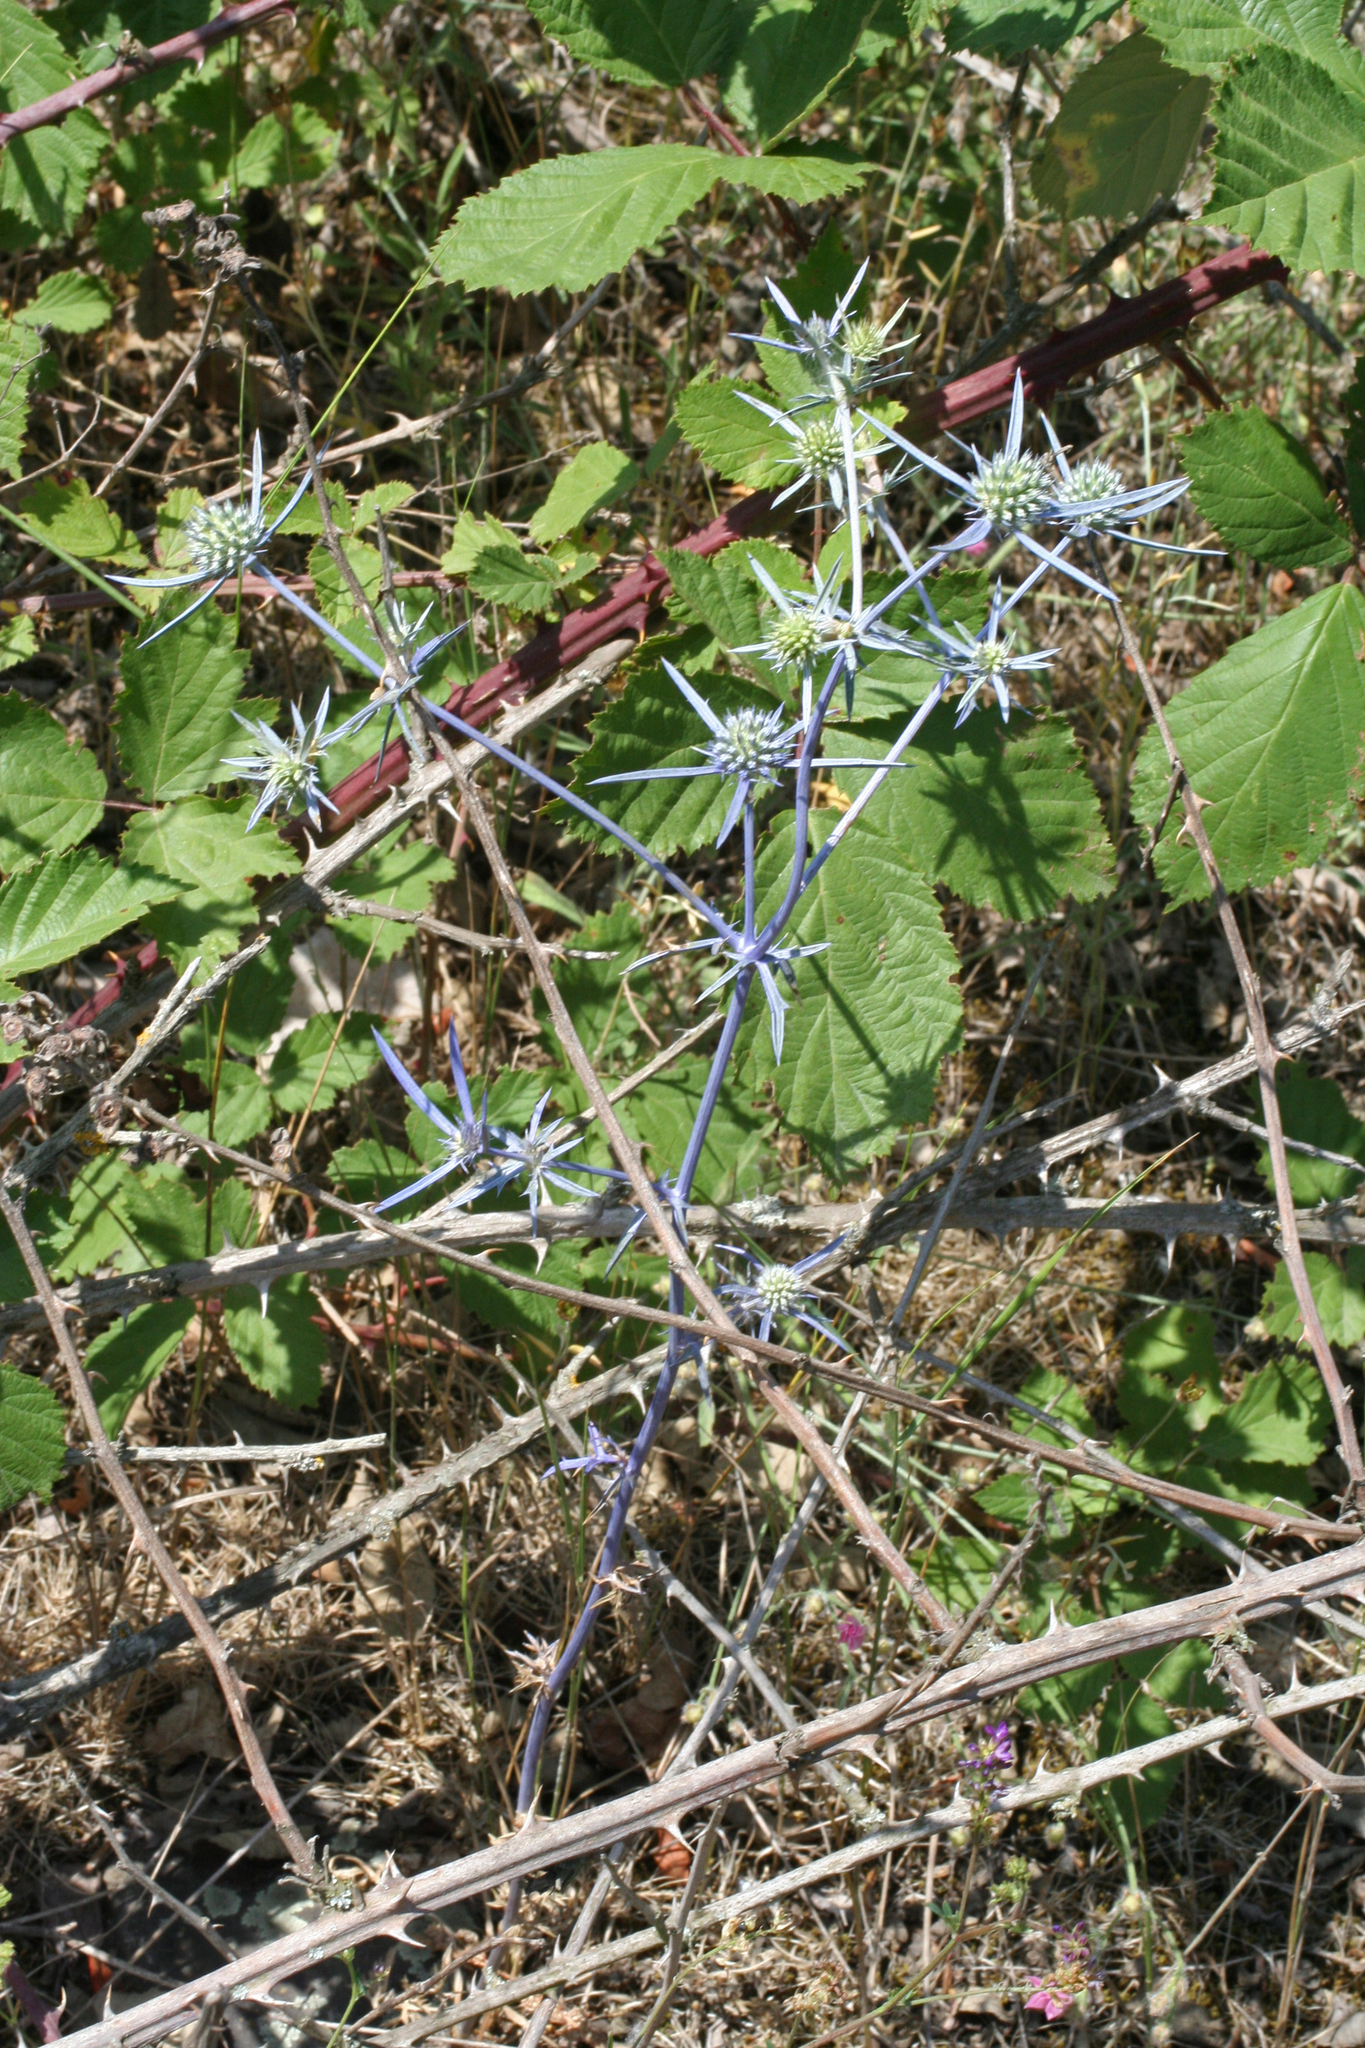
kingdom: Plantae
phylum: Tracheophyta
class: Magnoliopsida
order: Apiales
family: Apiaceae
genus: Eryngium
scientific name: Eryngium caeruleum
